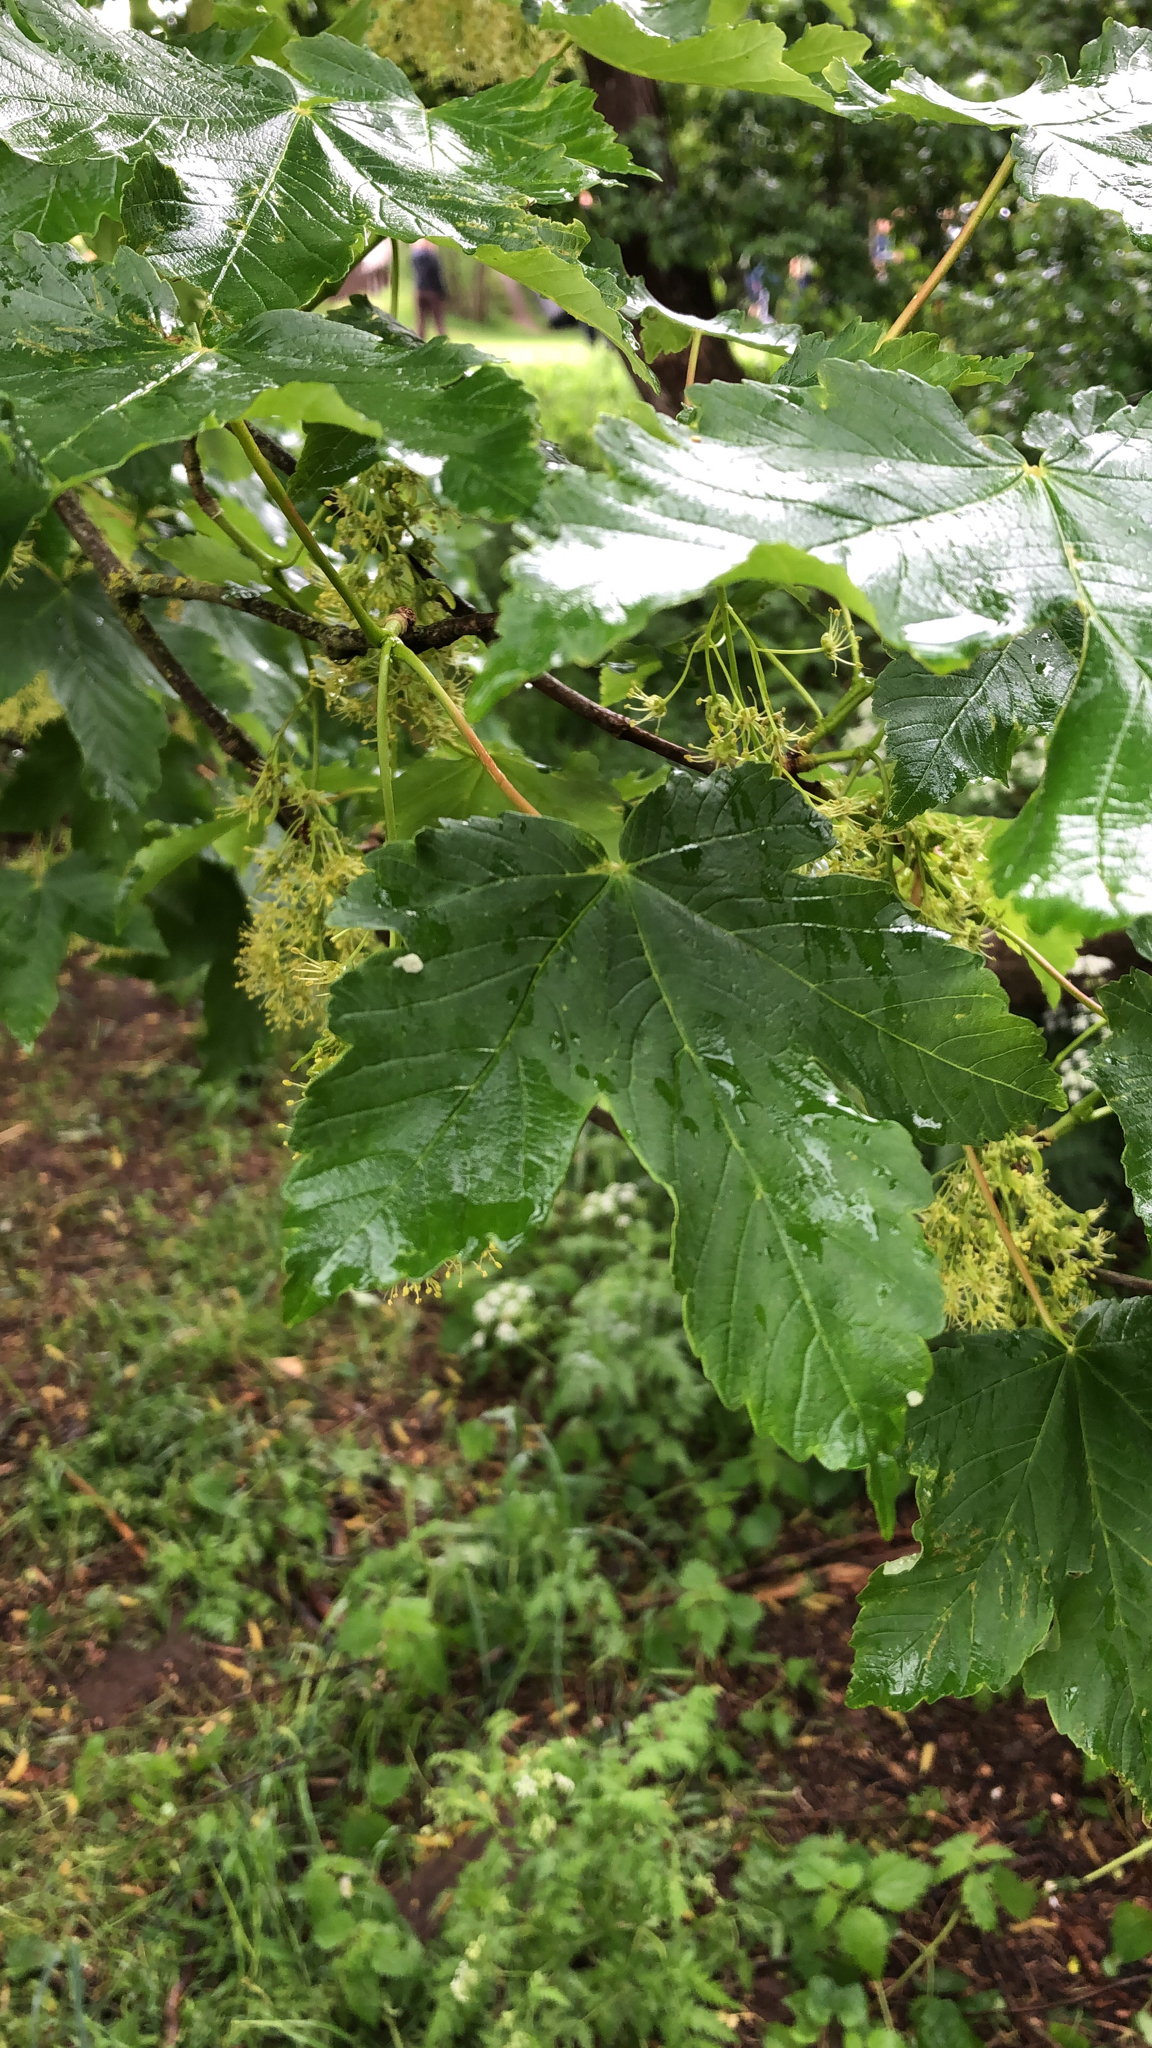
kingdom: Plantae
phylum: Tracheophyta
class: Magnoliopsida
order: Sapindales
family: Sapindaceae
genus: Acer
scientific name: Acer pseudoplatanus
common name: Sycamore
